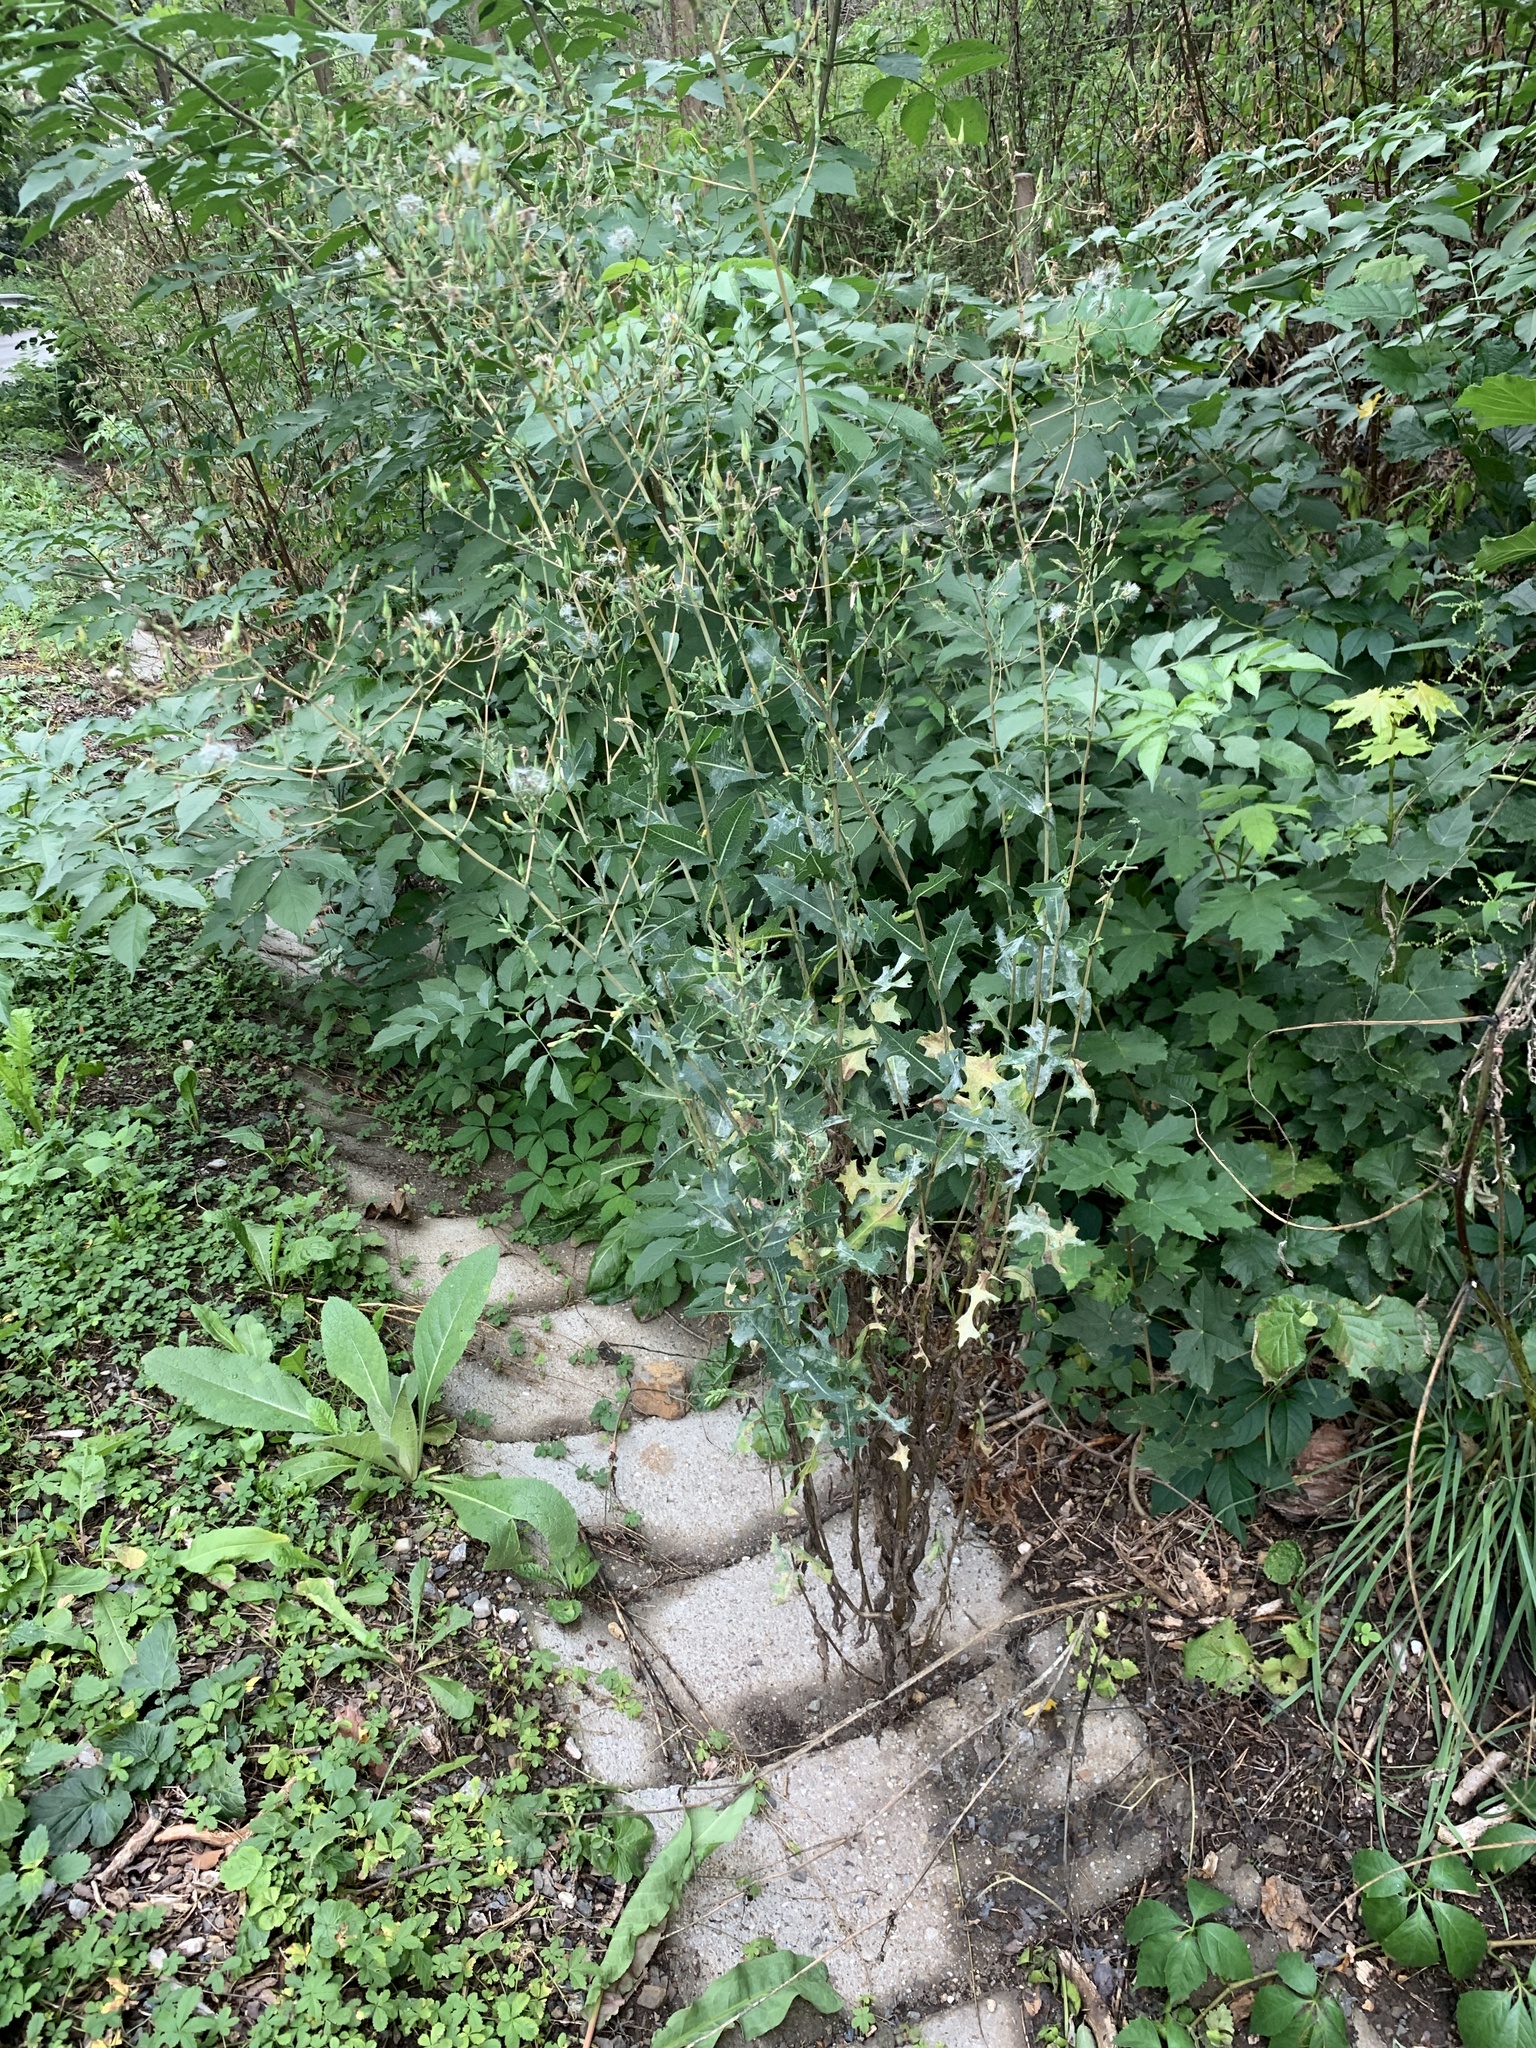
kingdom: Plantae
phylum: Tracheophyta
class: Magnoliopsida
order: Asterales
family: Asteraceae
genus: Lactuca
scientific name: Lactuca serriola
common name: Prickly lettuce
